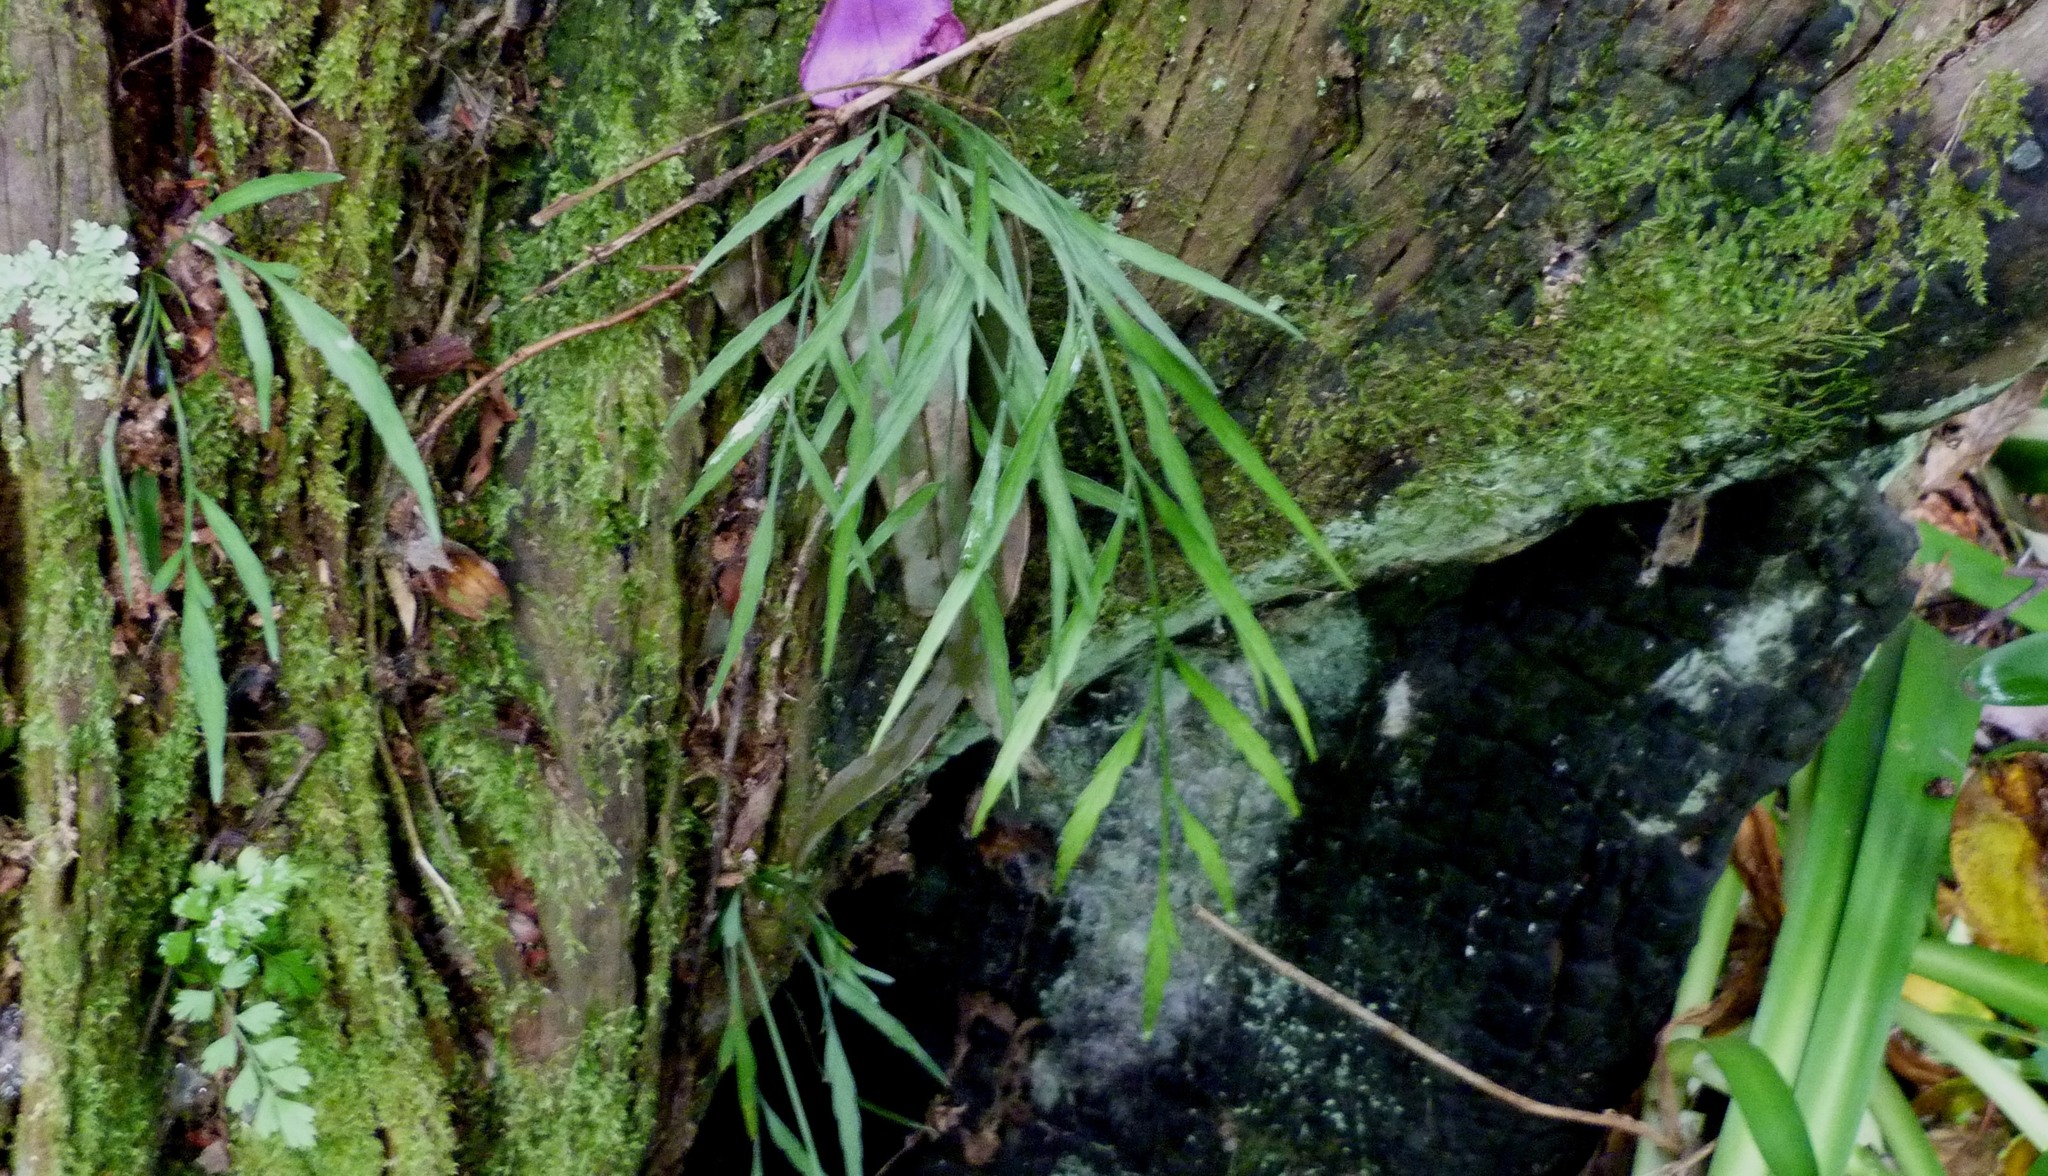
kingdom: Plantae
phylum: Tracheophyta
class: Polypodiopsida
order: Polypodiales
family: Aspleniaceae
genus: Asplenium
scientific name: Asplenium flaccidum
